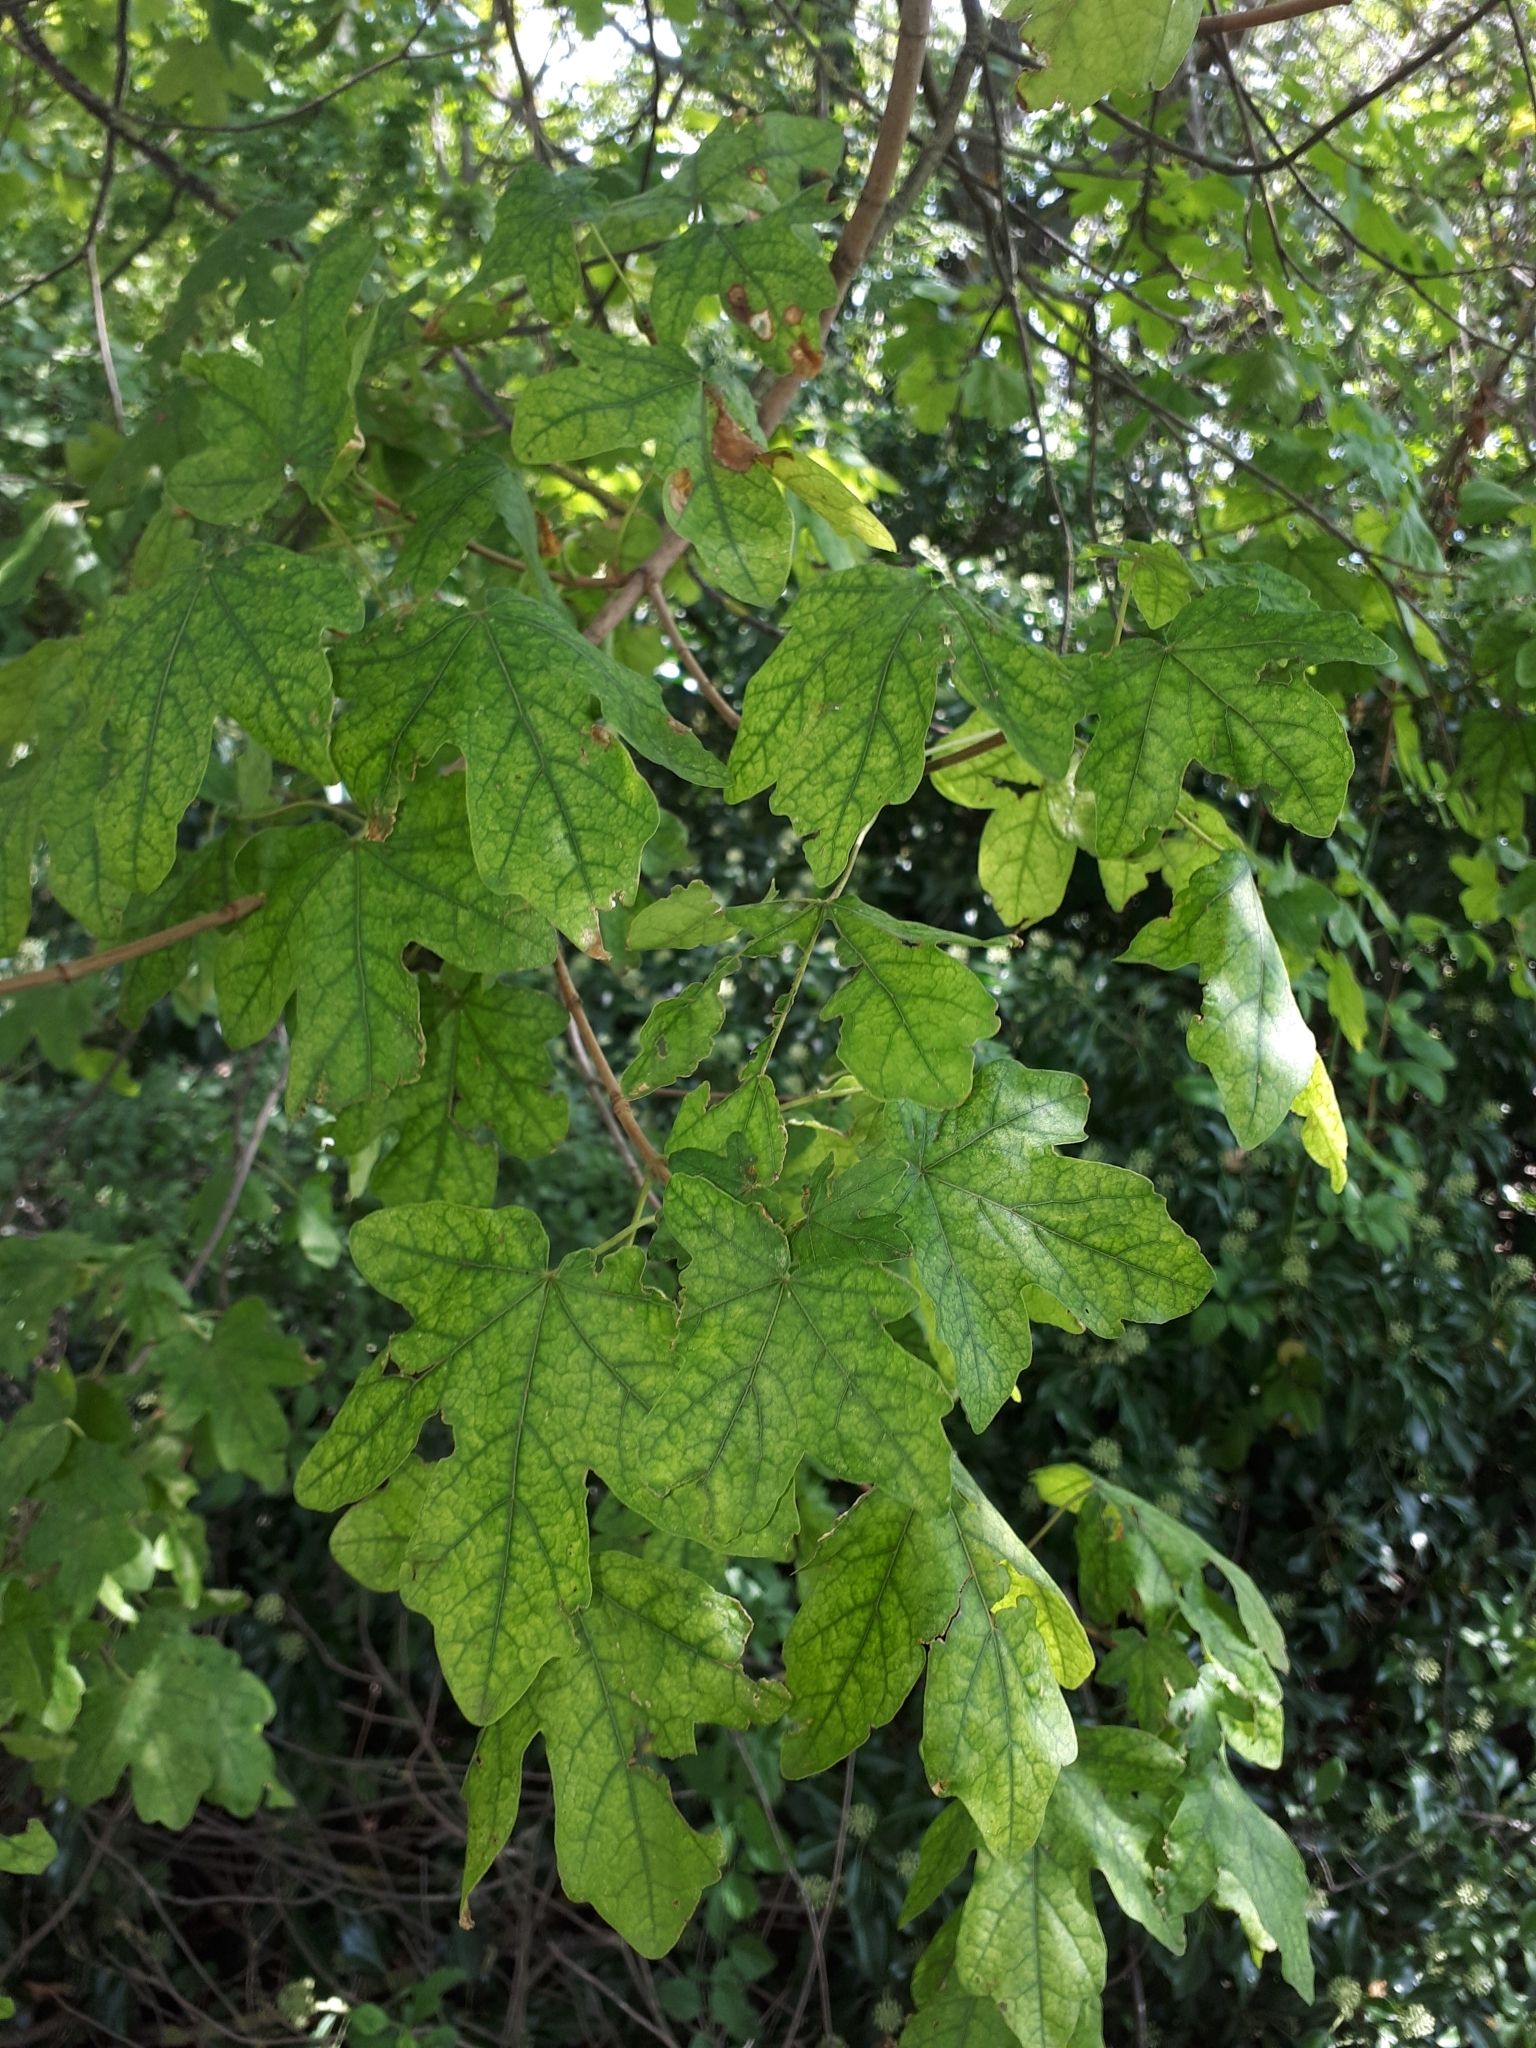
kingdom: Plantae
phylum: Tracheophyta
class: Magnoliopsida
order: Sapindales
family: Sapindaceae
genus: Acer
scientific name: Acer campestre
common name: Field maple
